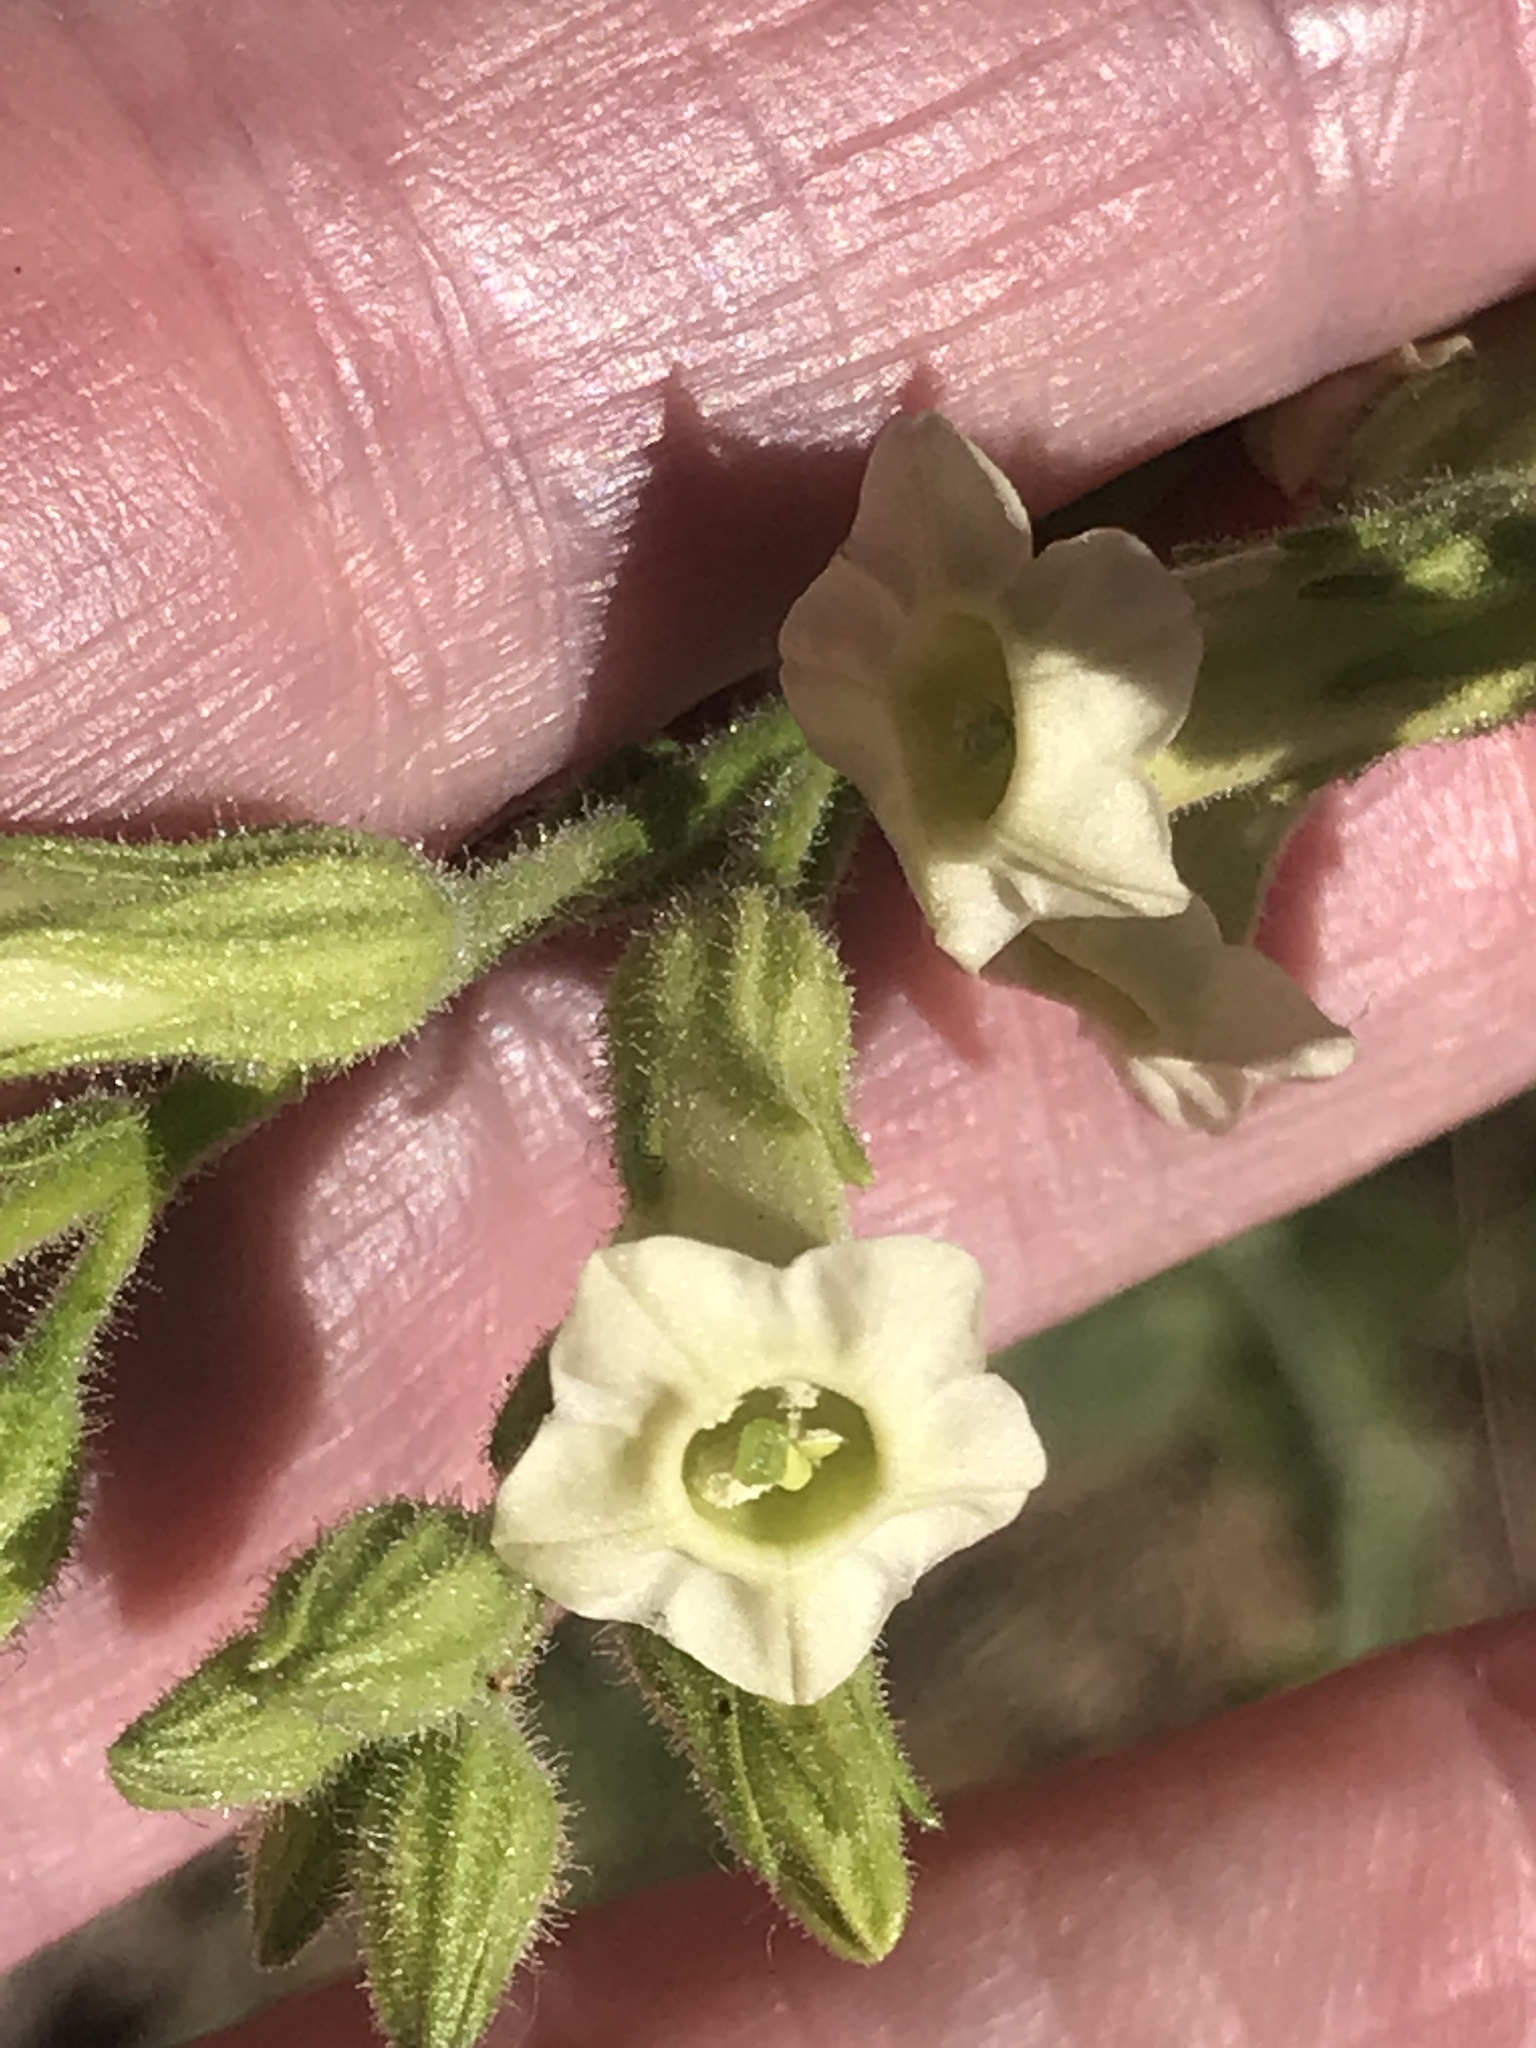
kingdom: Plantae
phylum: Tracheophyta
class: Magnoliopsida
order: Solanales
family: Solanaceae
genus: Nicotiana
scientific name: Nicotiana obtusifolia
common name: Desert tobacco
